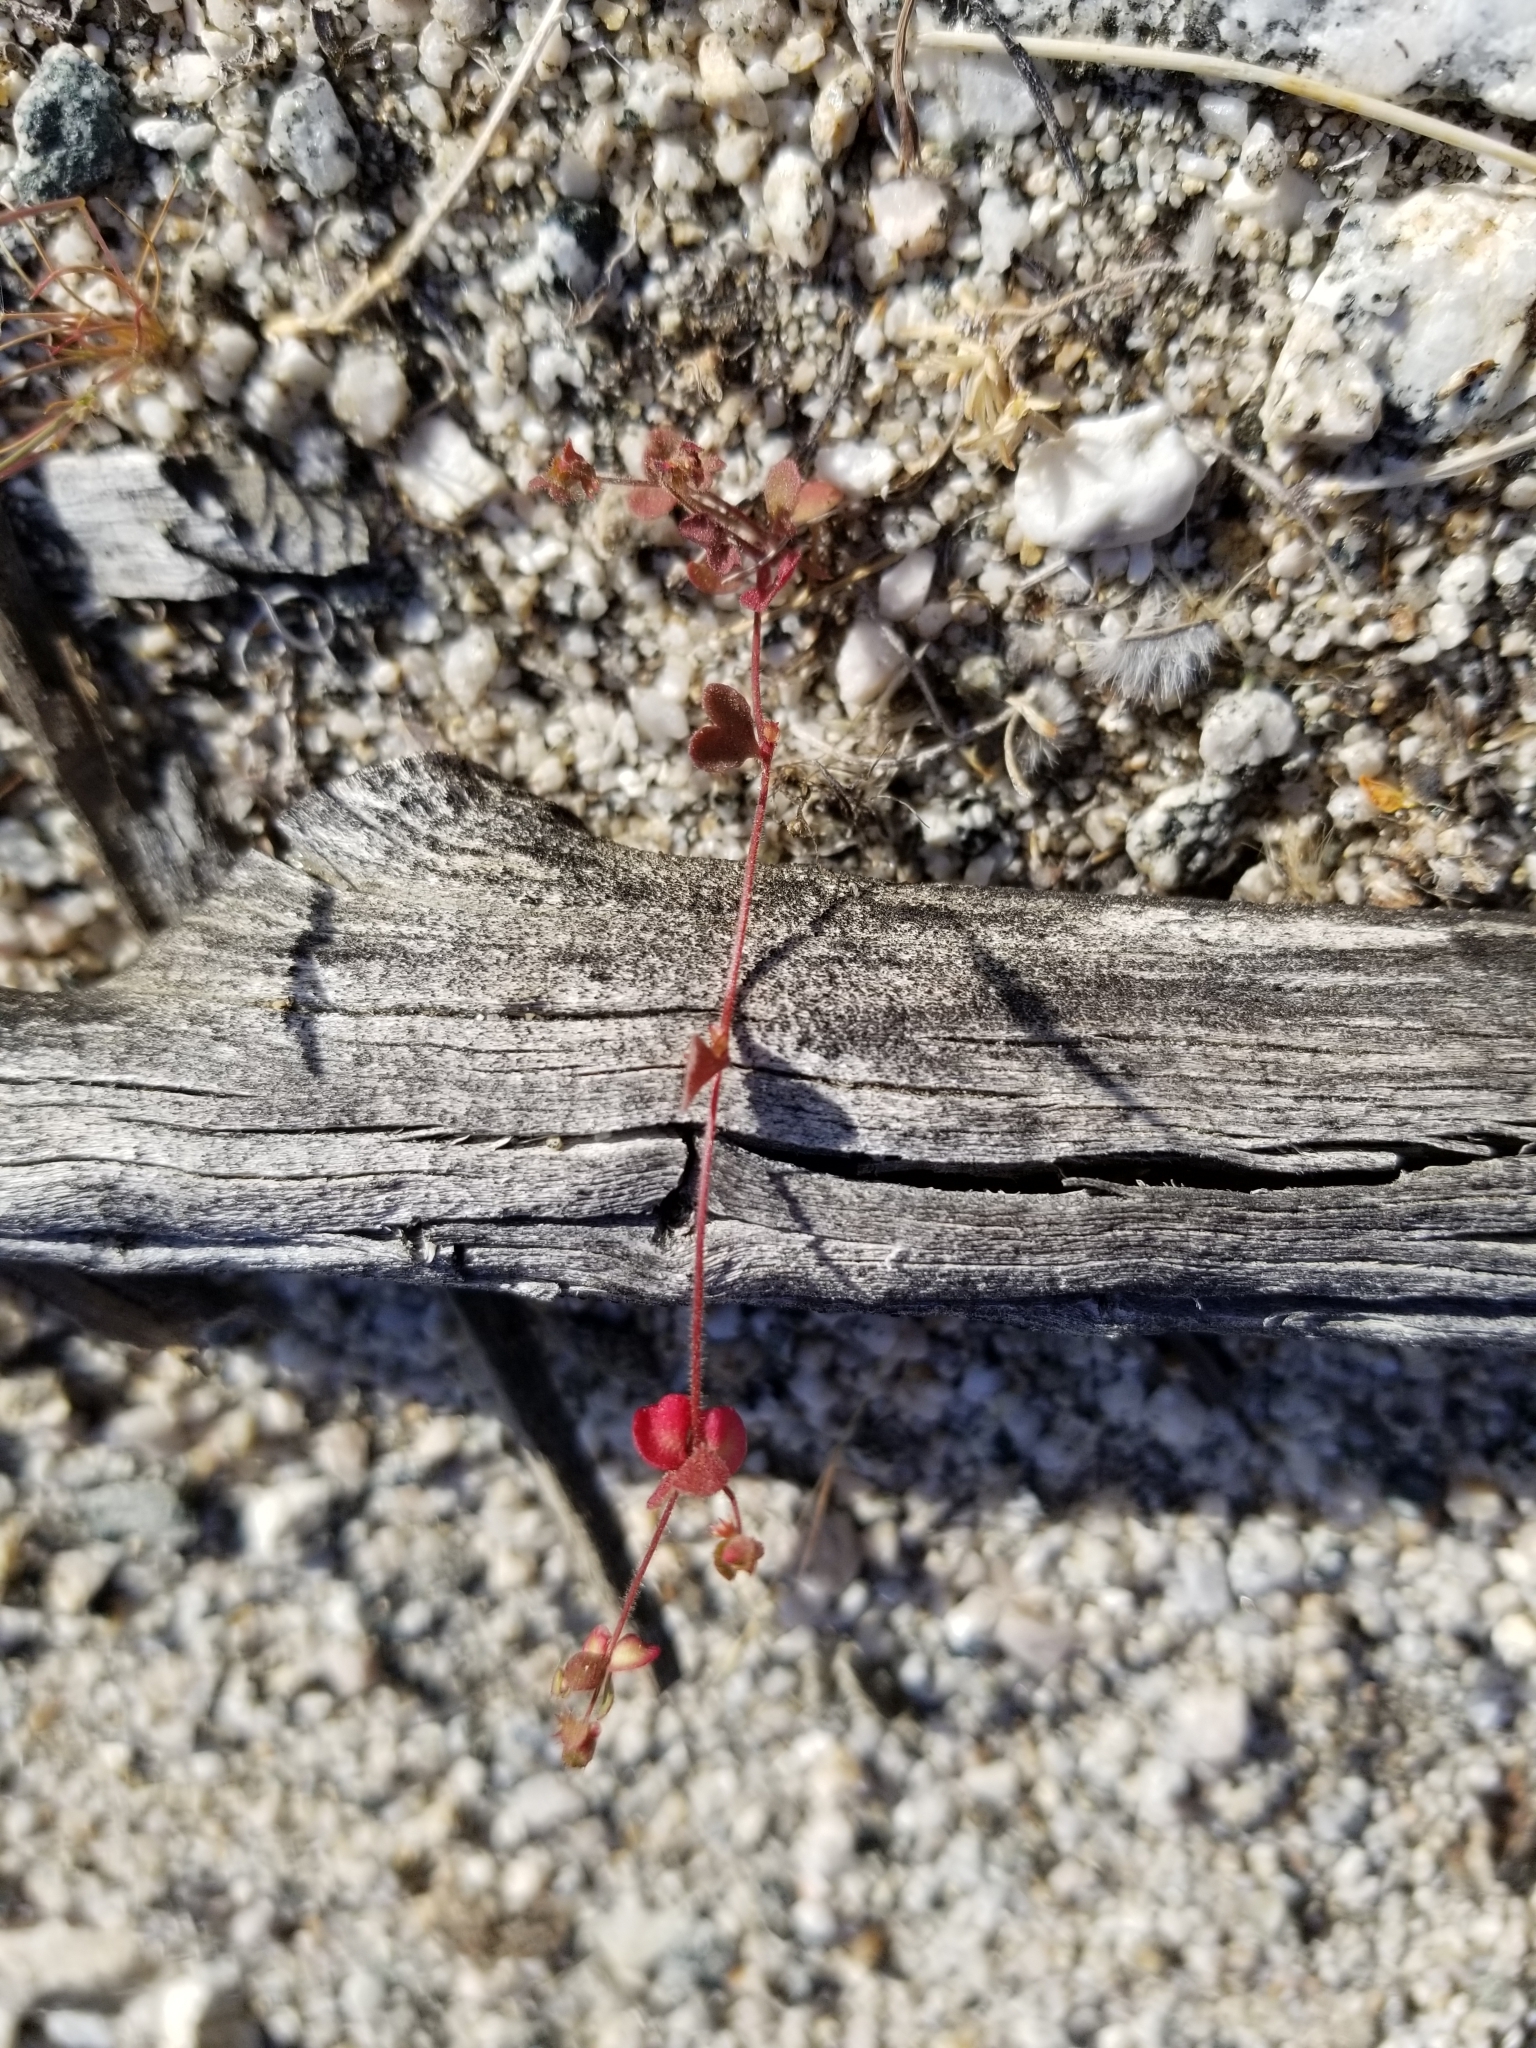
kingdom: Plantae
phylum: Tracheophyta
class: Magnoliopsida
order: Caryophyllales
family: Polygonaceae
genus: Pterostegia
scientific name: Pterostegia drymarioides
